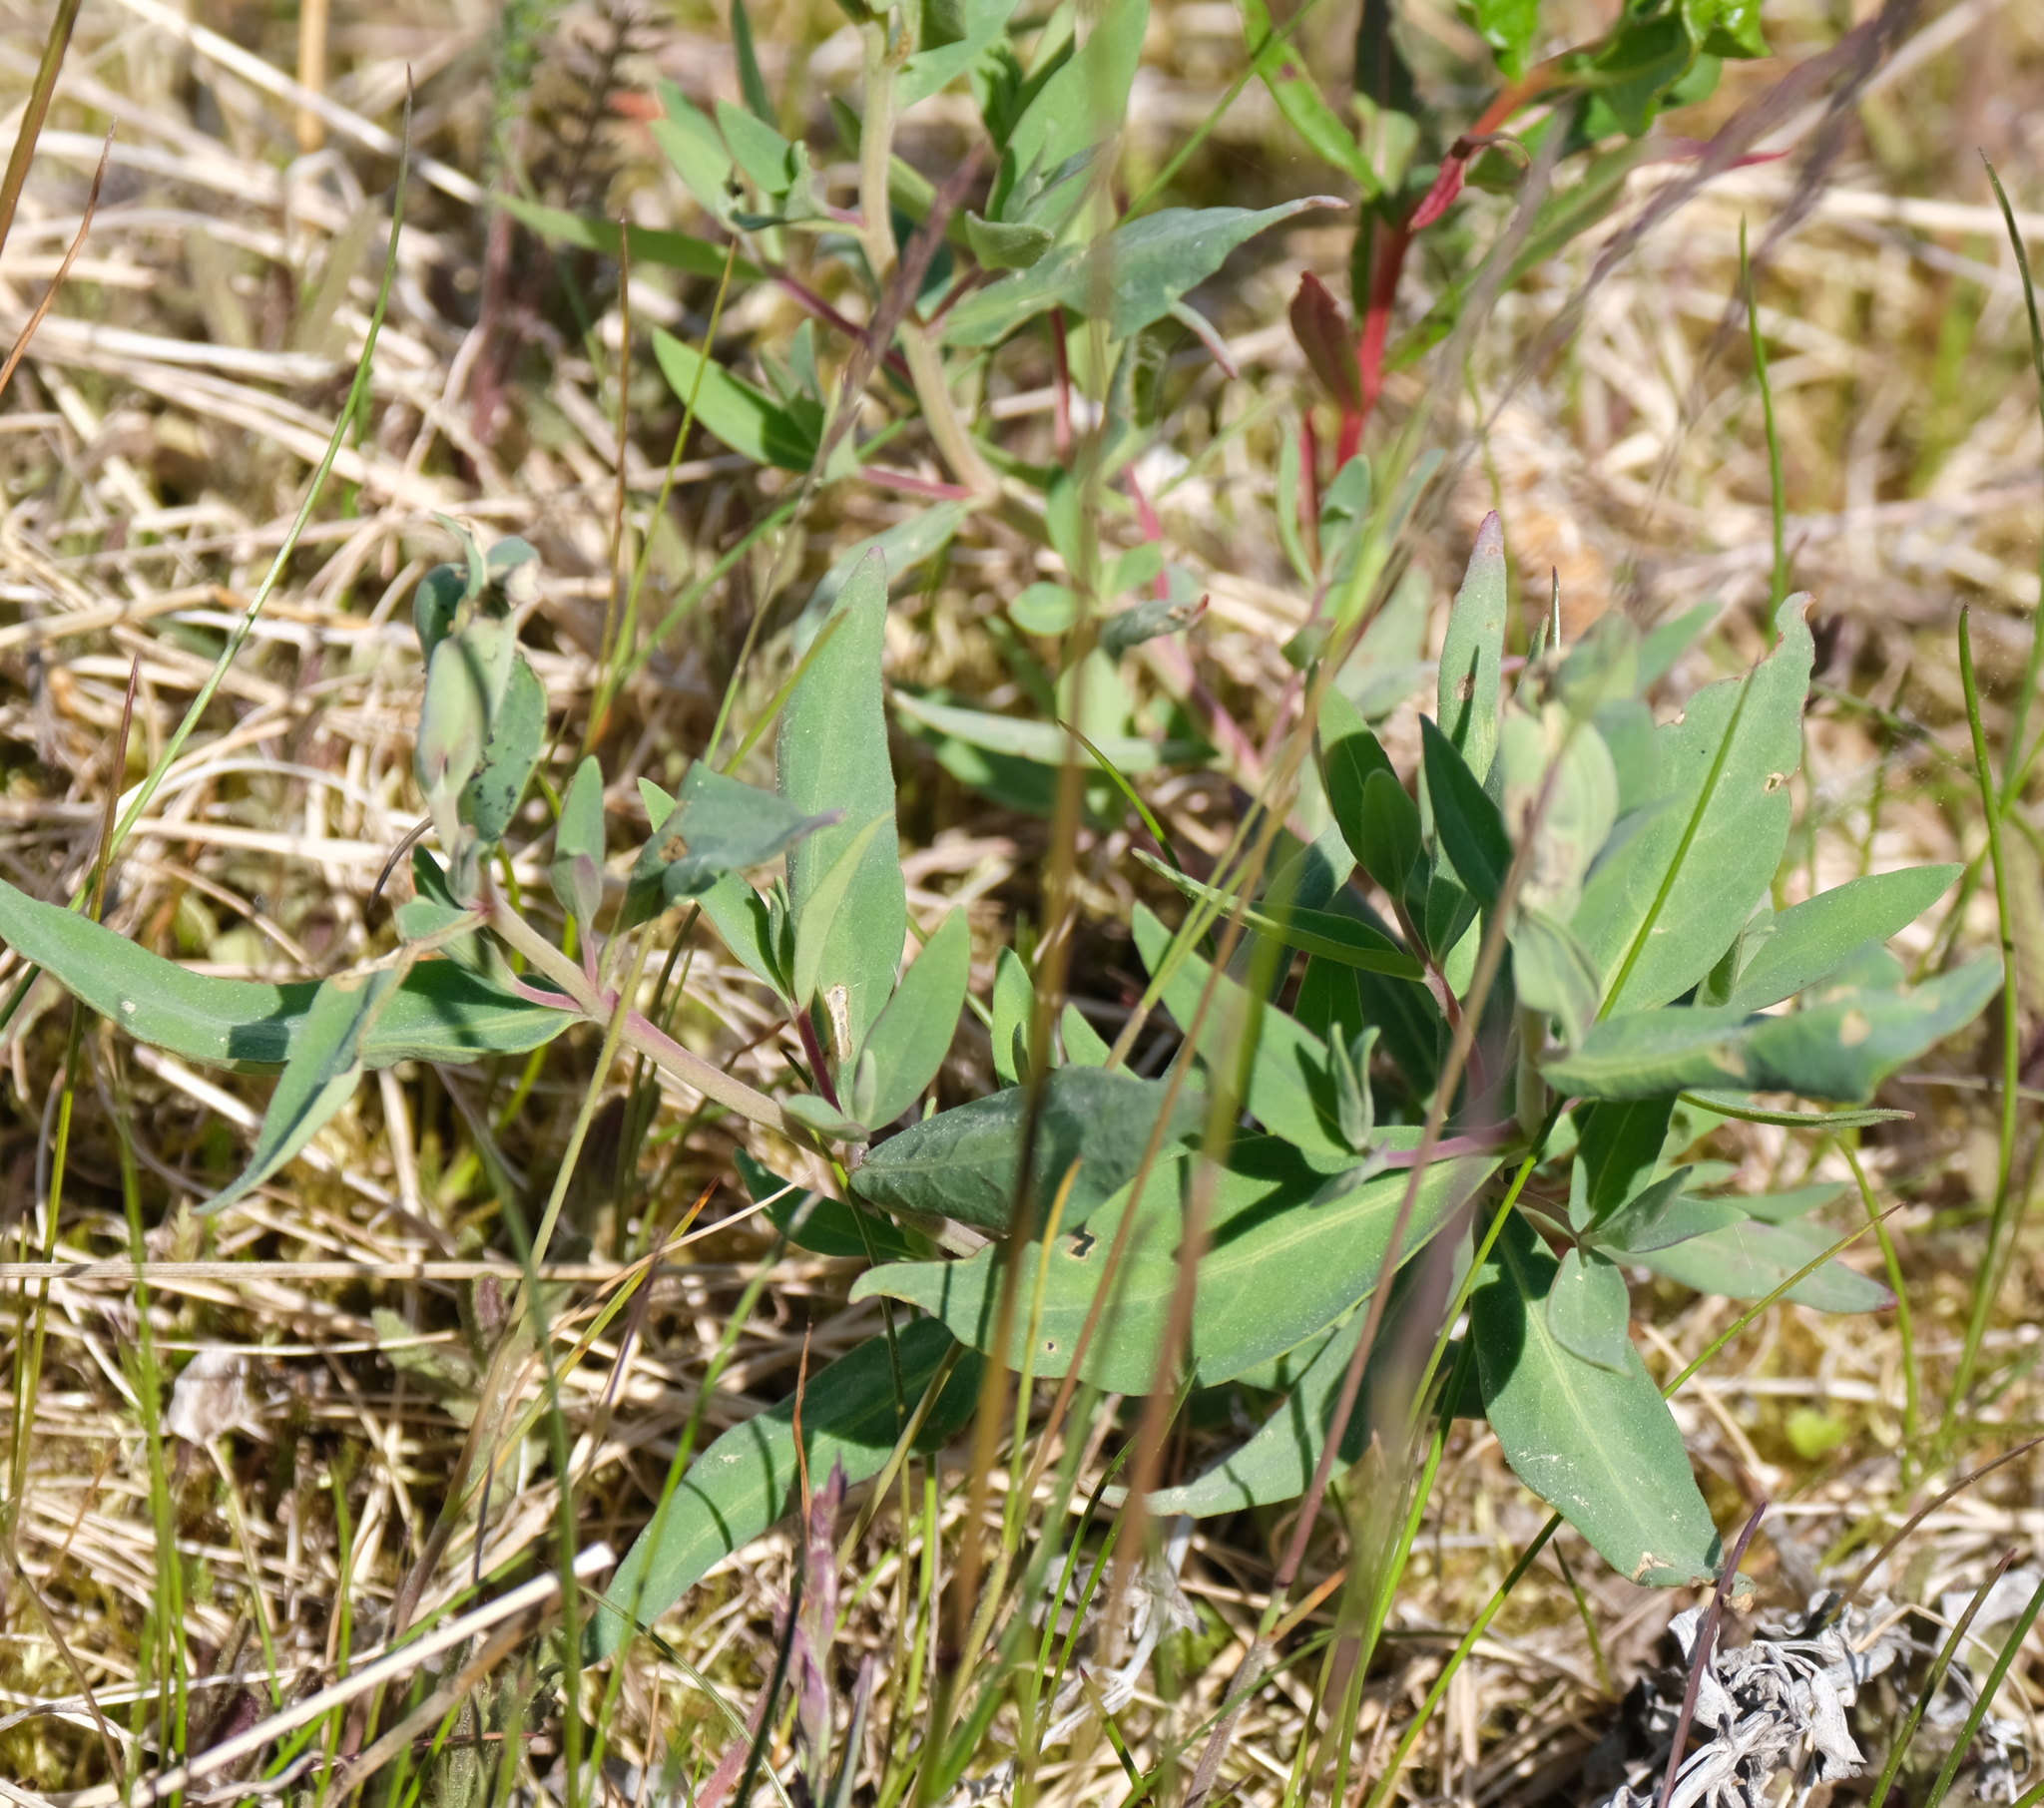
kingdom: Plantae
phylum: Tracheophyta
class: Magnoliopsida
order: Myrtales
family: Onagraceae
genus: Chamaenerion
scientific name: Chamaenerion latifolium
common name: Dwarf fireweed
